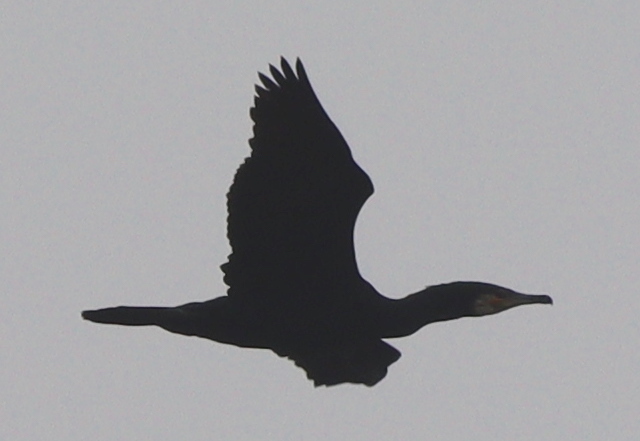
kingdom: Animalia
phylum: Chordata
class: Aves
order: Suliformes
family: Phalacrocoracidae
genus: Phalacrocorax
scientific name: Phalacrocorax carbo
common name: Great cormorant
